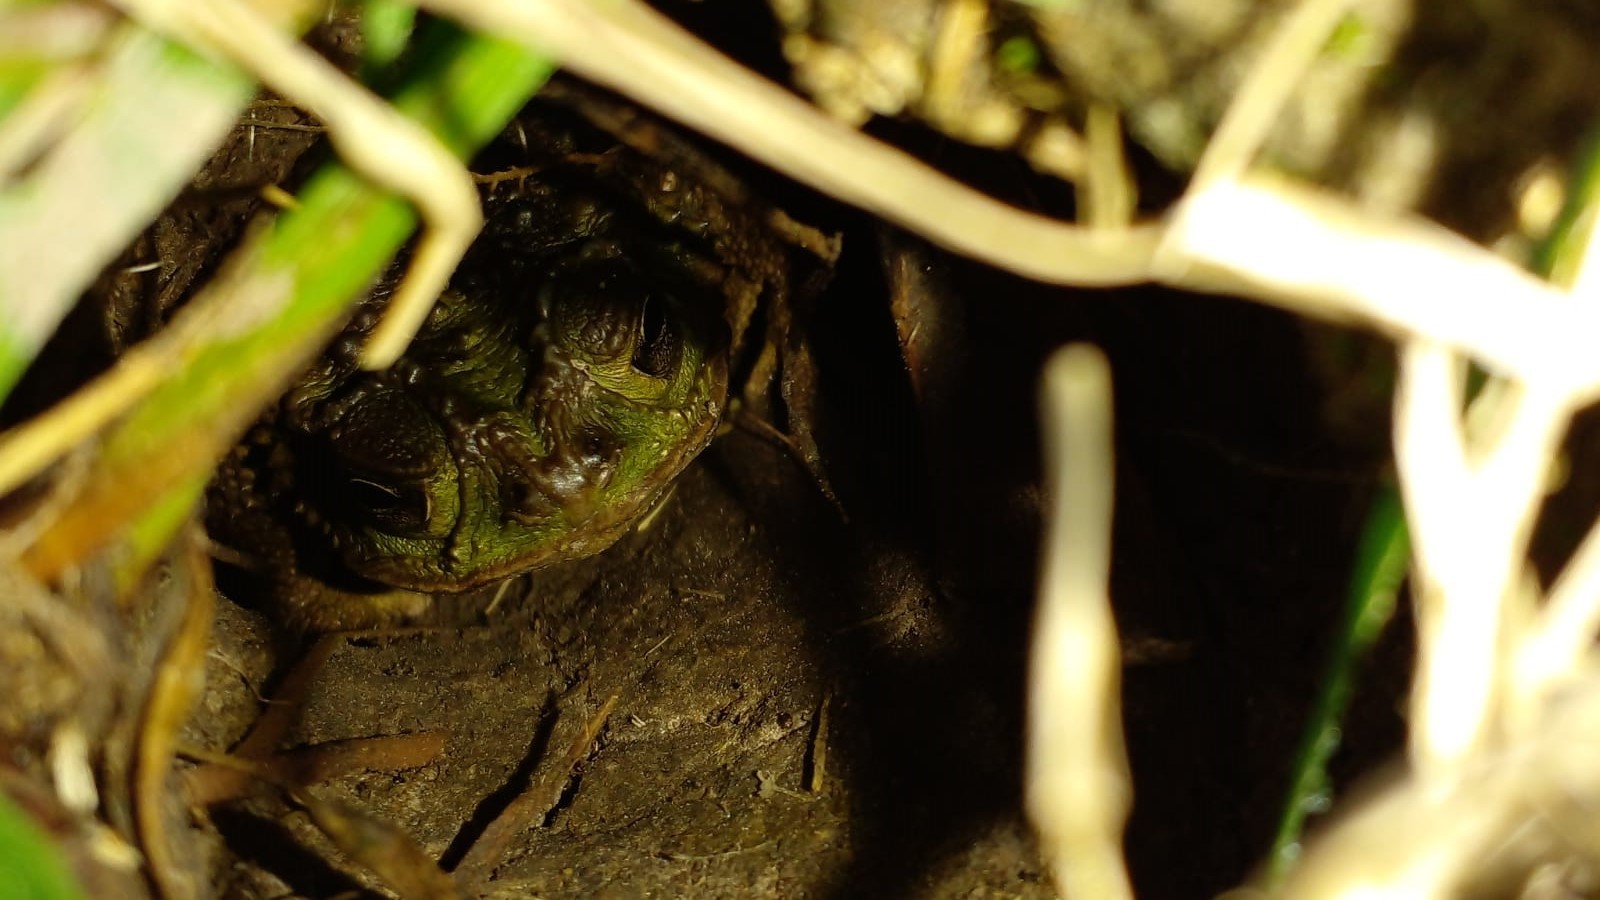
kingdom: Animalia
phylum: Chordata
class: Amphibia
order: Anura
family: Bufonidae
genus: Rhinella
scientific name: Rhinella dorbignyi
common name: D´orbigny’s toad
